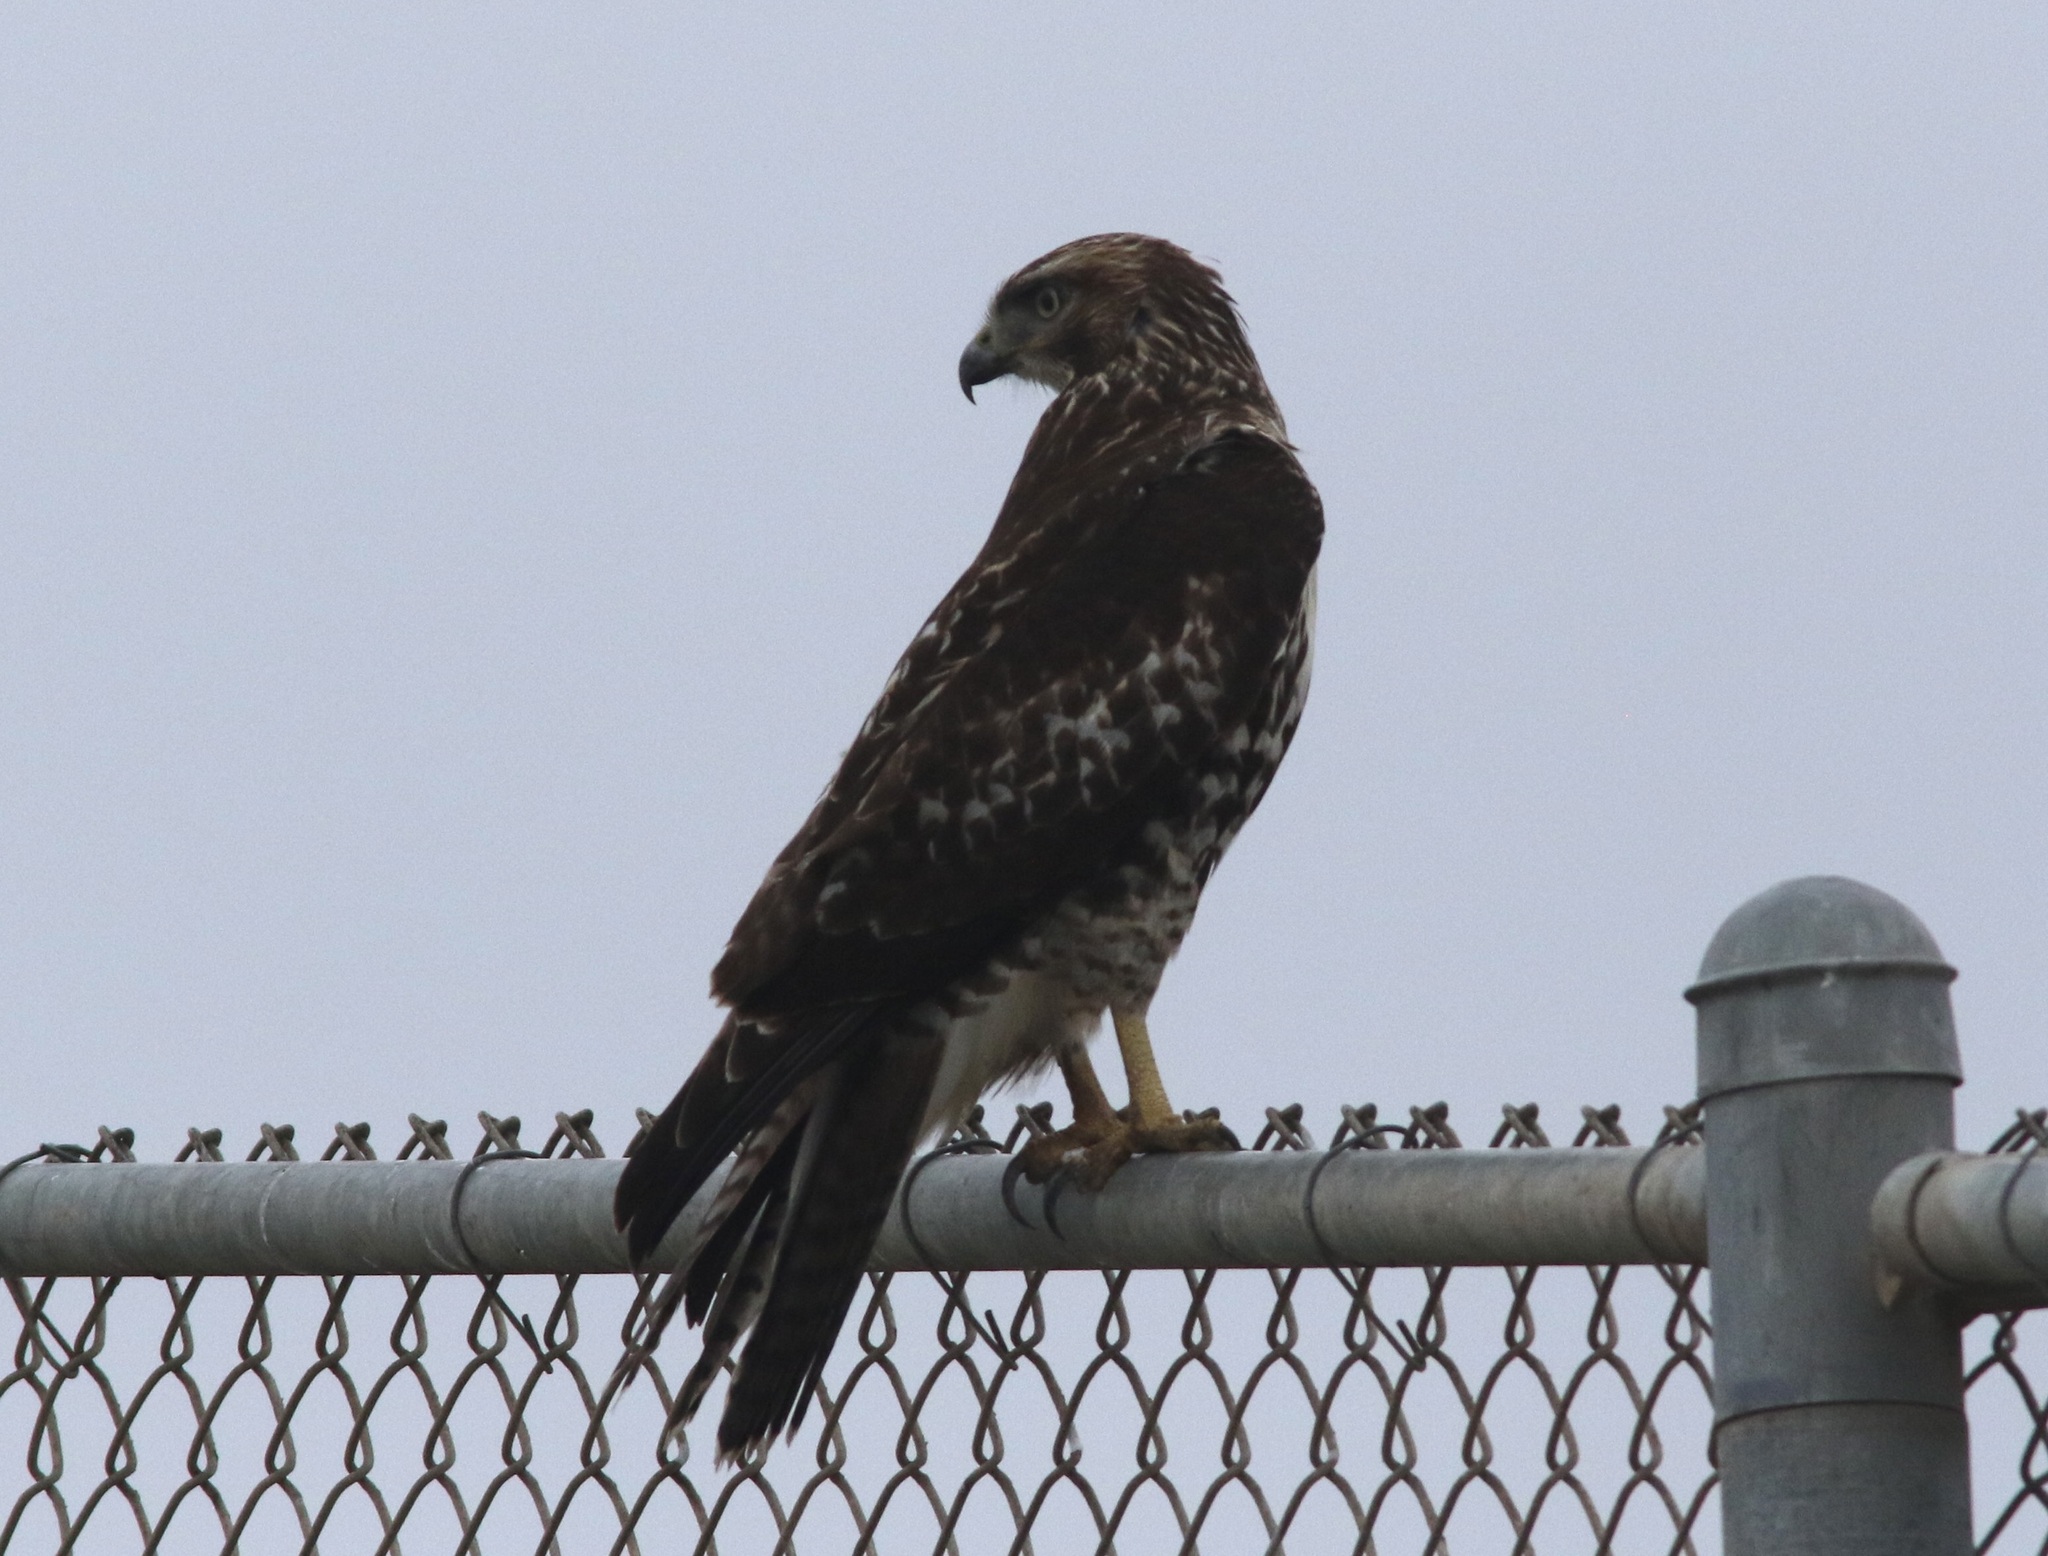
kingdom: Animalia
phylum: Chordata
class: Aves
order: Accipitriformes
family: Accipitridae
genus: Buteo
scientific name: Buteo jamaicensis
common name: Red-tailed hawk
